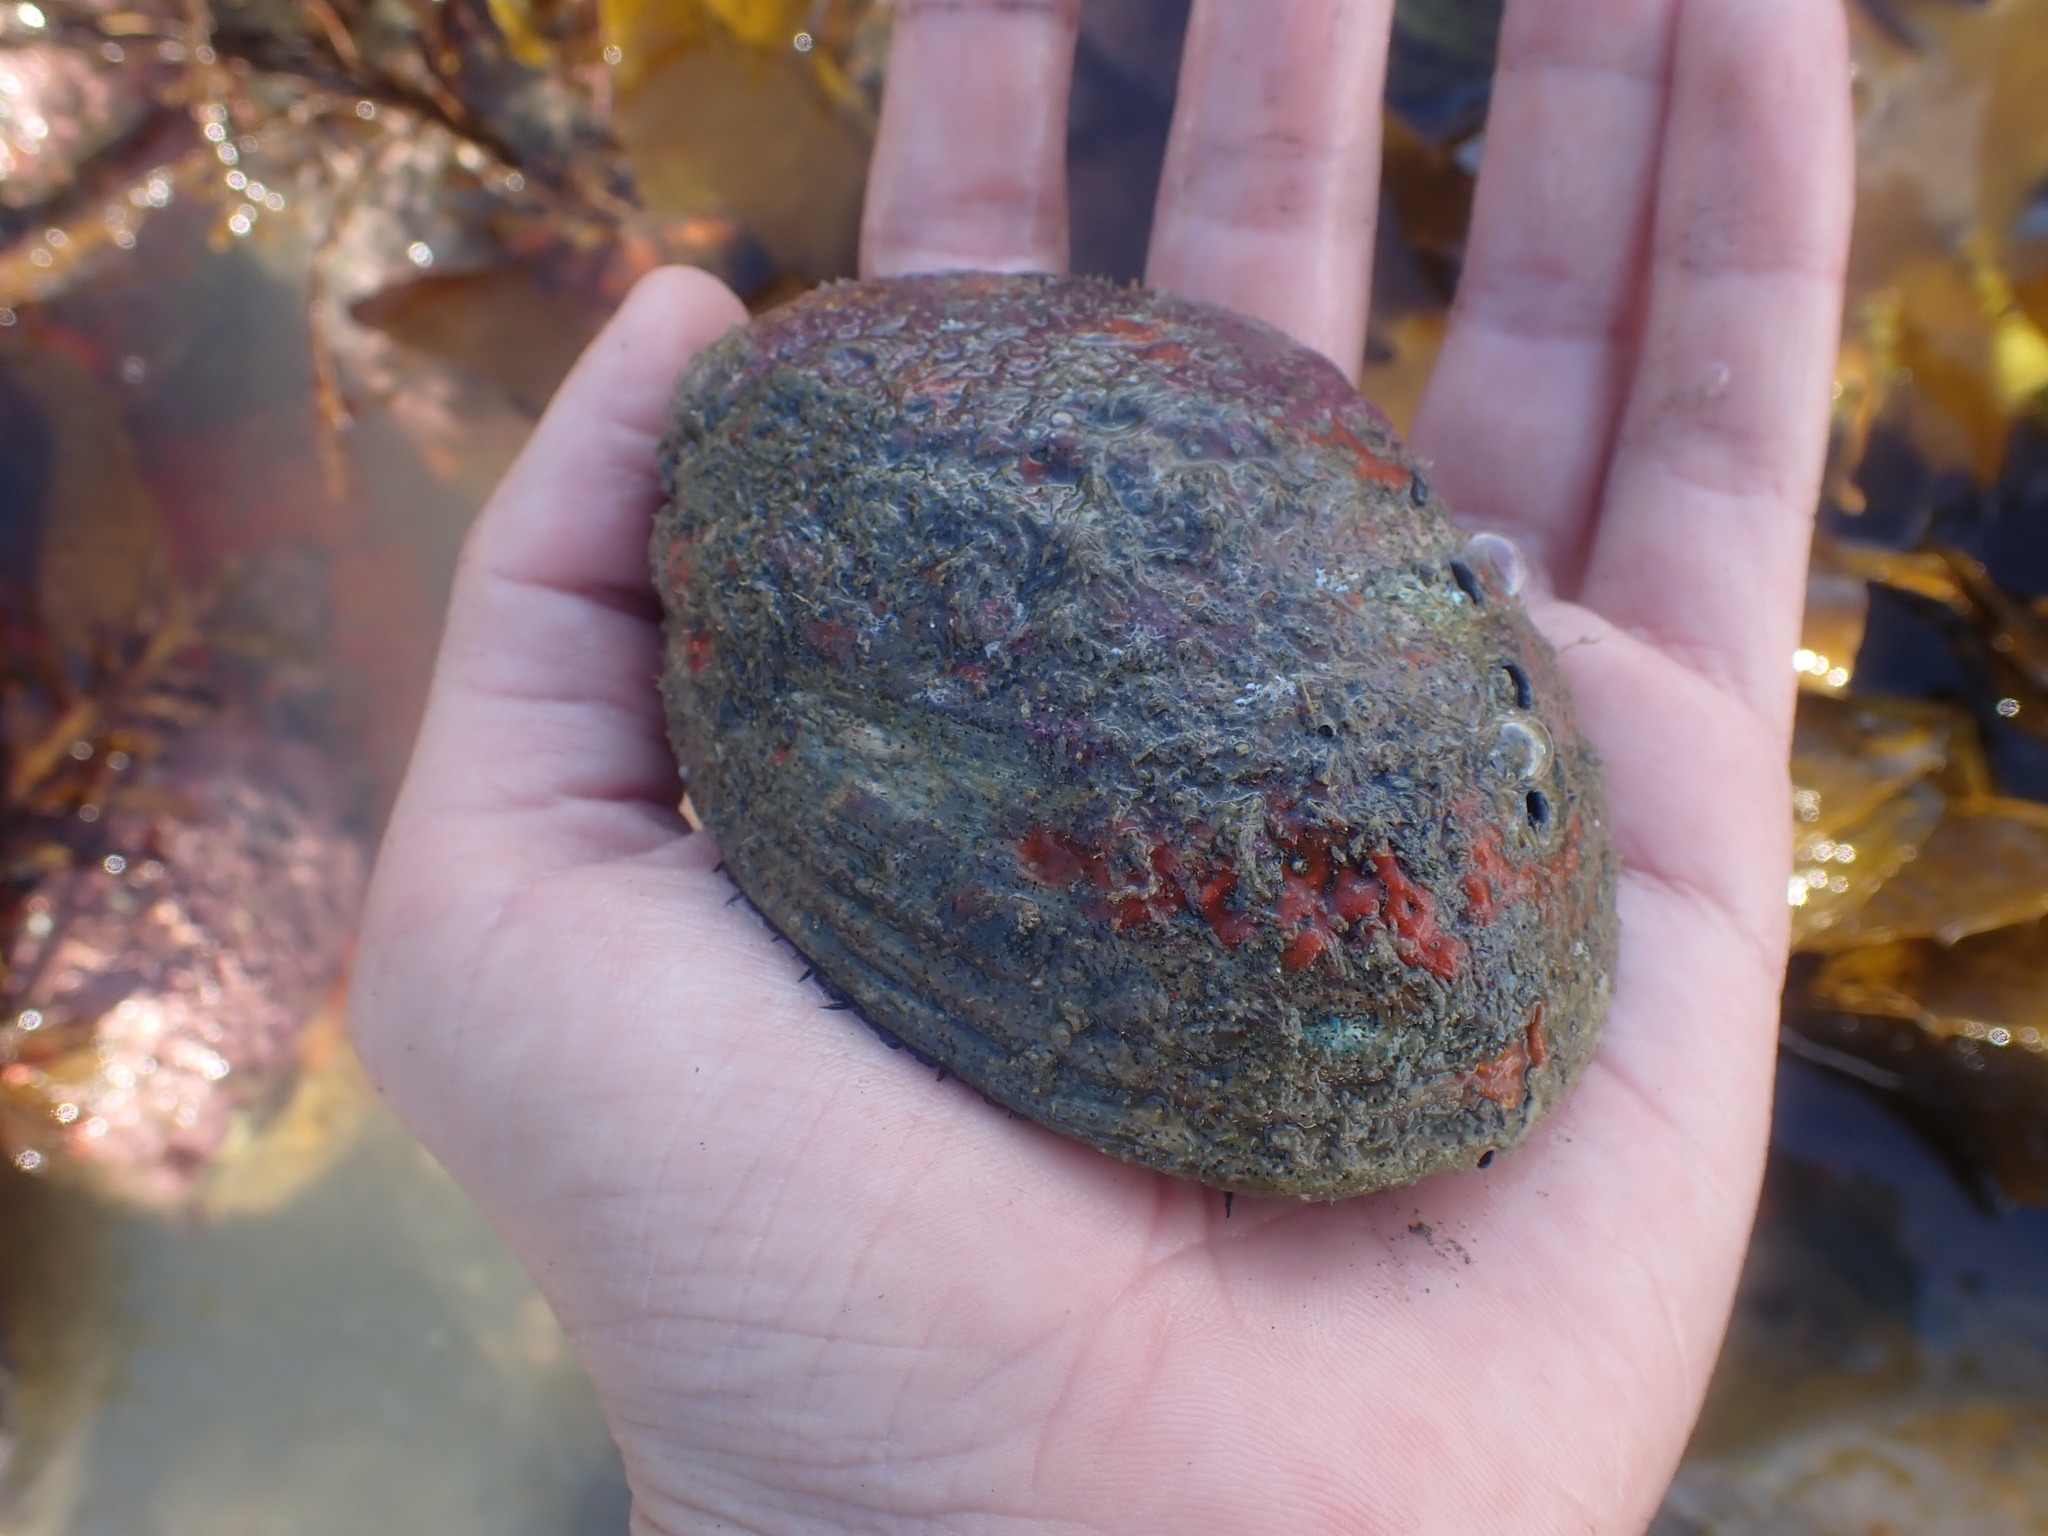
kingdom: Animalia
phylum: Mollusca
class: Gastropoda
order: Lepetellida
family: Haliotidae
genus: Haliotis
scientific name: Haliotis iris
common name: Abalone
